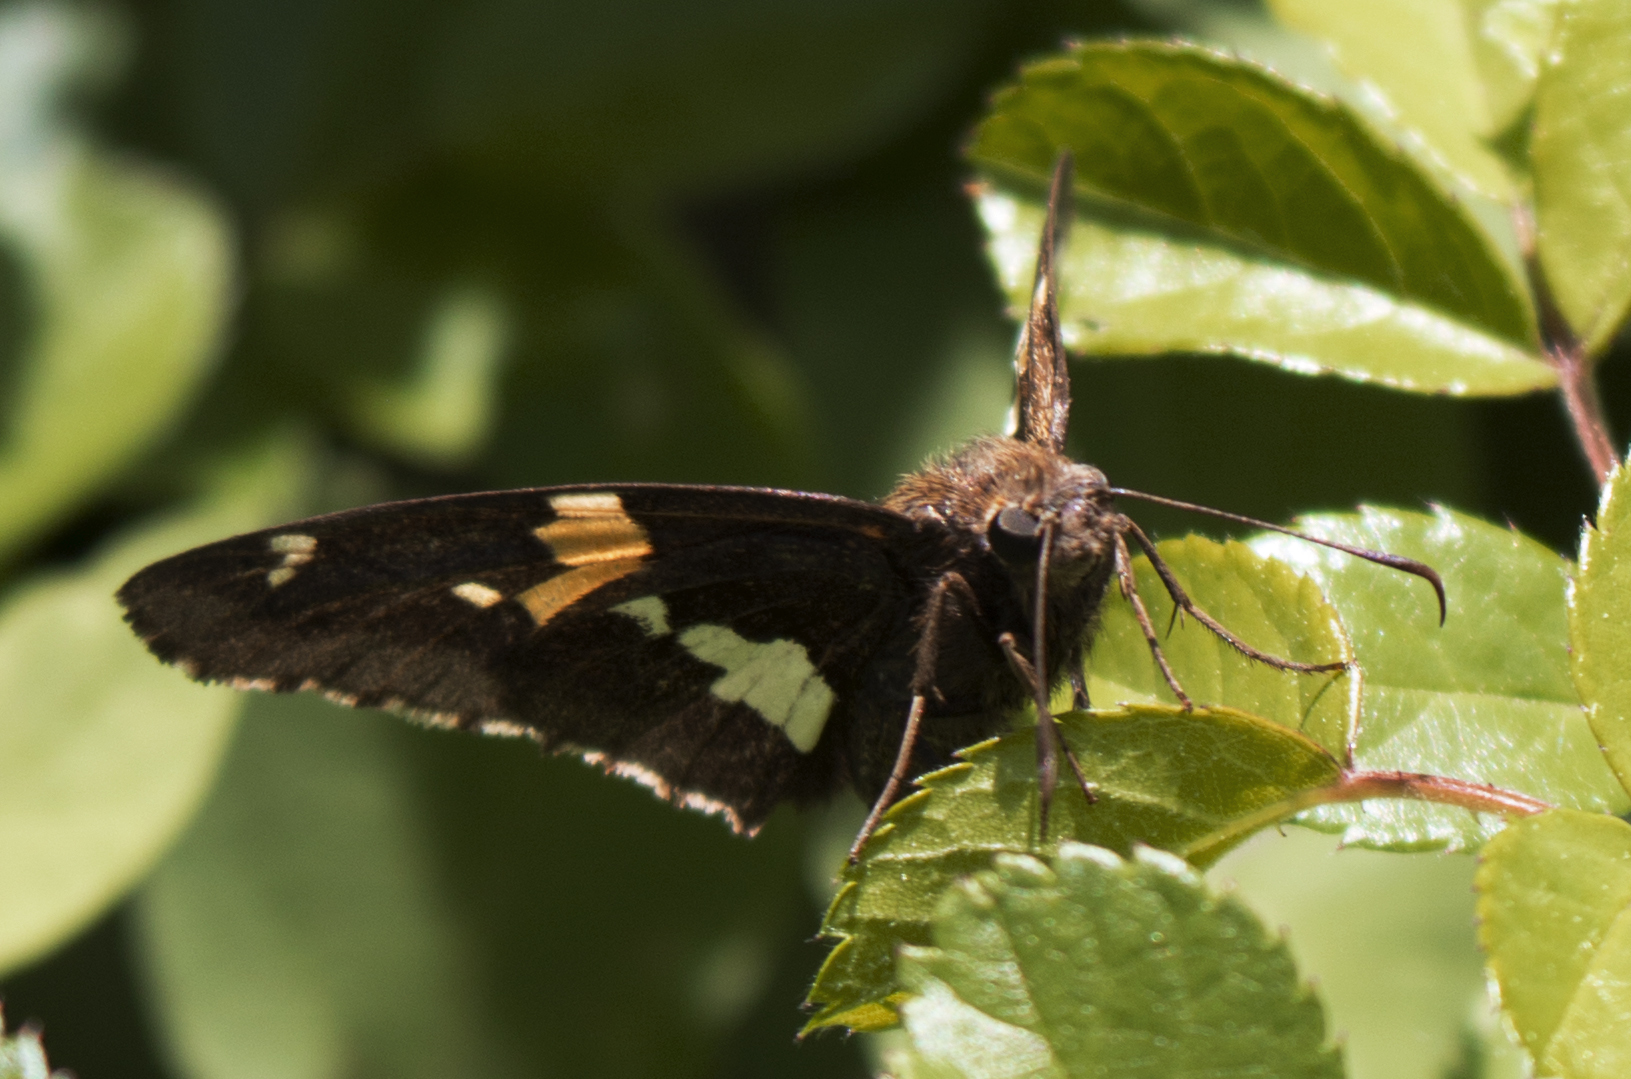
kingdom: Animalia
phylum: Arthropoda
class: Insecta
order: Lepidoptera
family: Hesperiidae
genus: Epargyreus
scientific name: Epargyreus clarus
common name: Silver-spotted skipper
